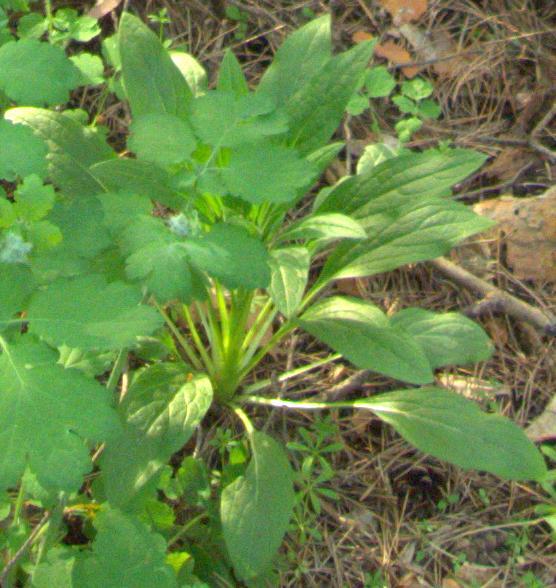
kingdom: Plantae
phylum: Tracheophyta
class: Magnoliopsida
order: Boraginales
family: Boraginaceae
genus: Cynoglossum
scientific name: Cynoglossum officinale
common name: Hound's-tongue
